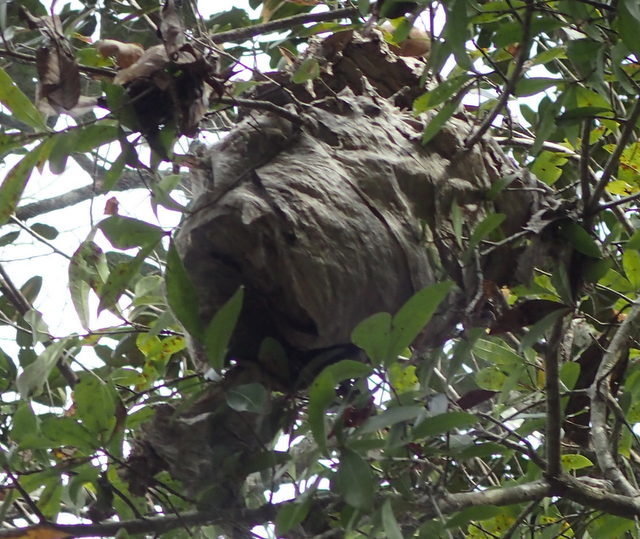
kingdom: Animalia
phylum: Arthropoda
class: Insecta
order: Hymenoptera
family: Vespidae
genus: Dolichovespula
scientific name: Dolichovespula
